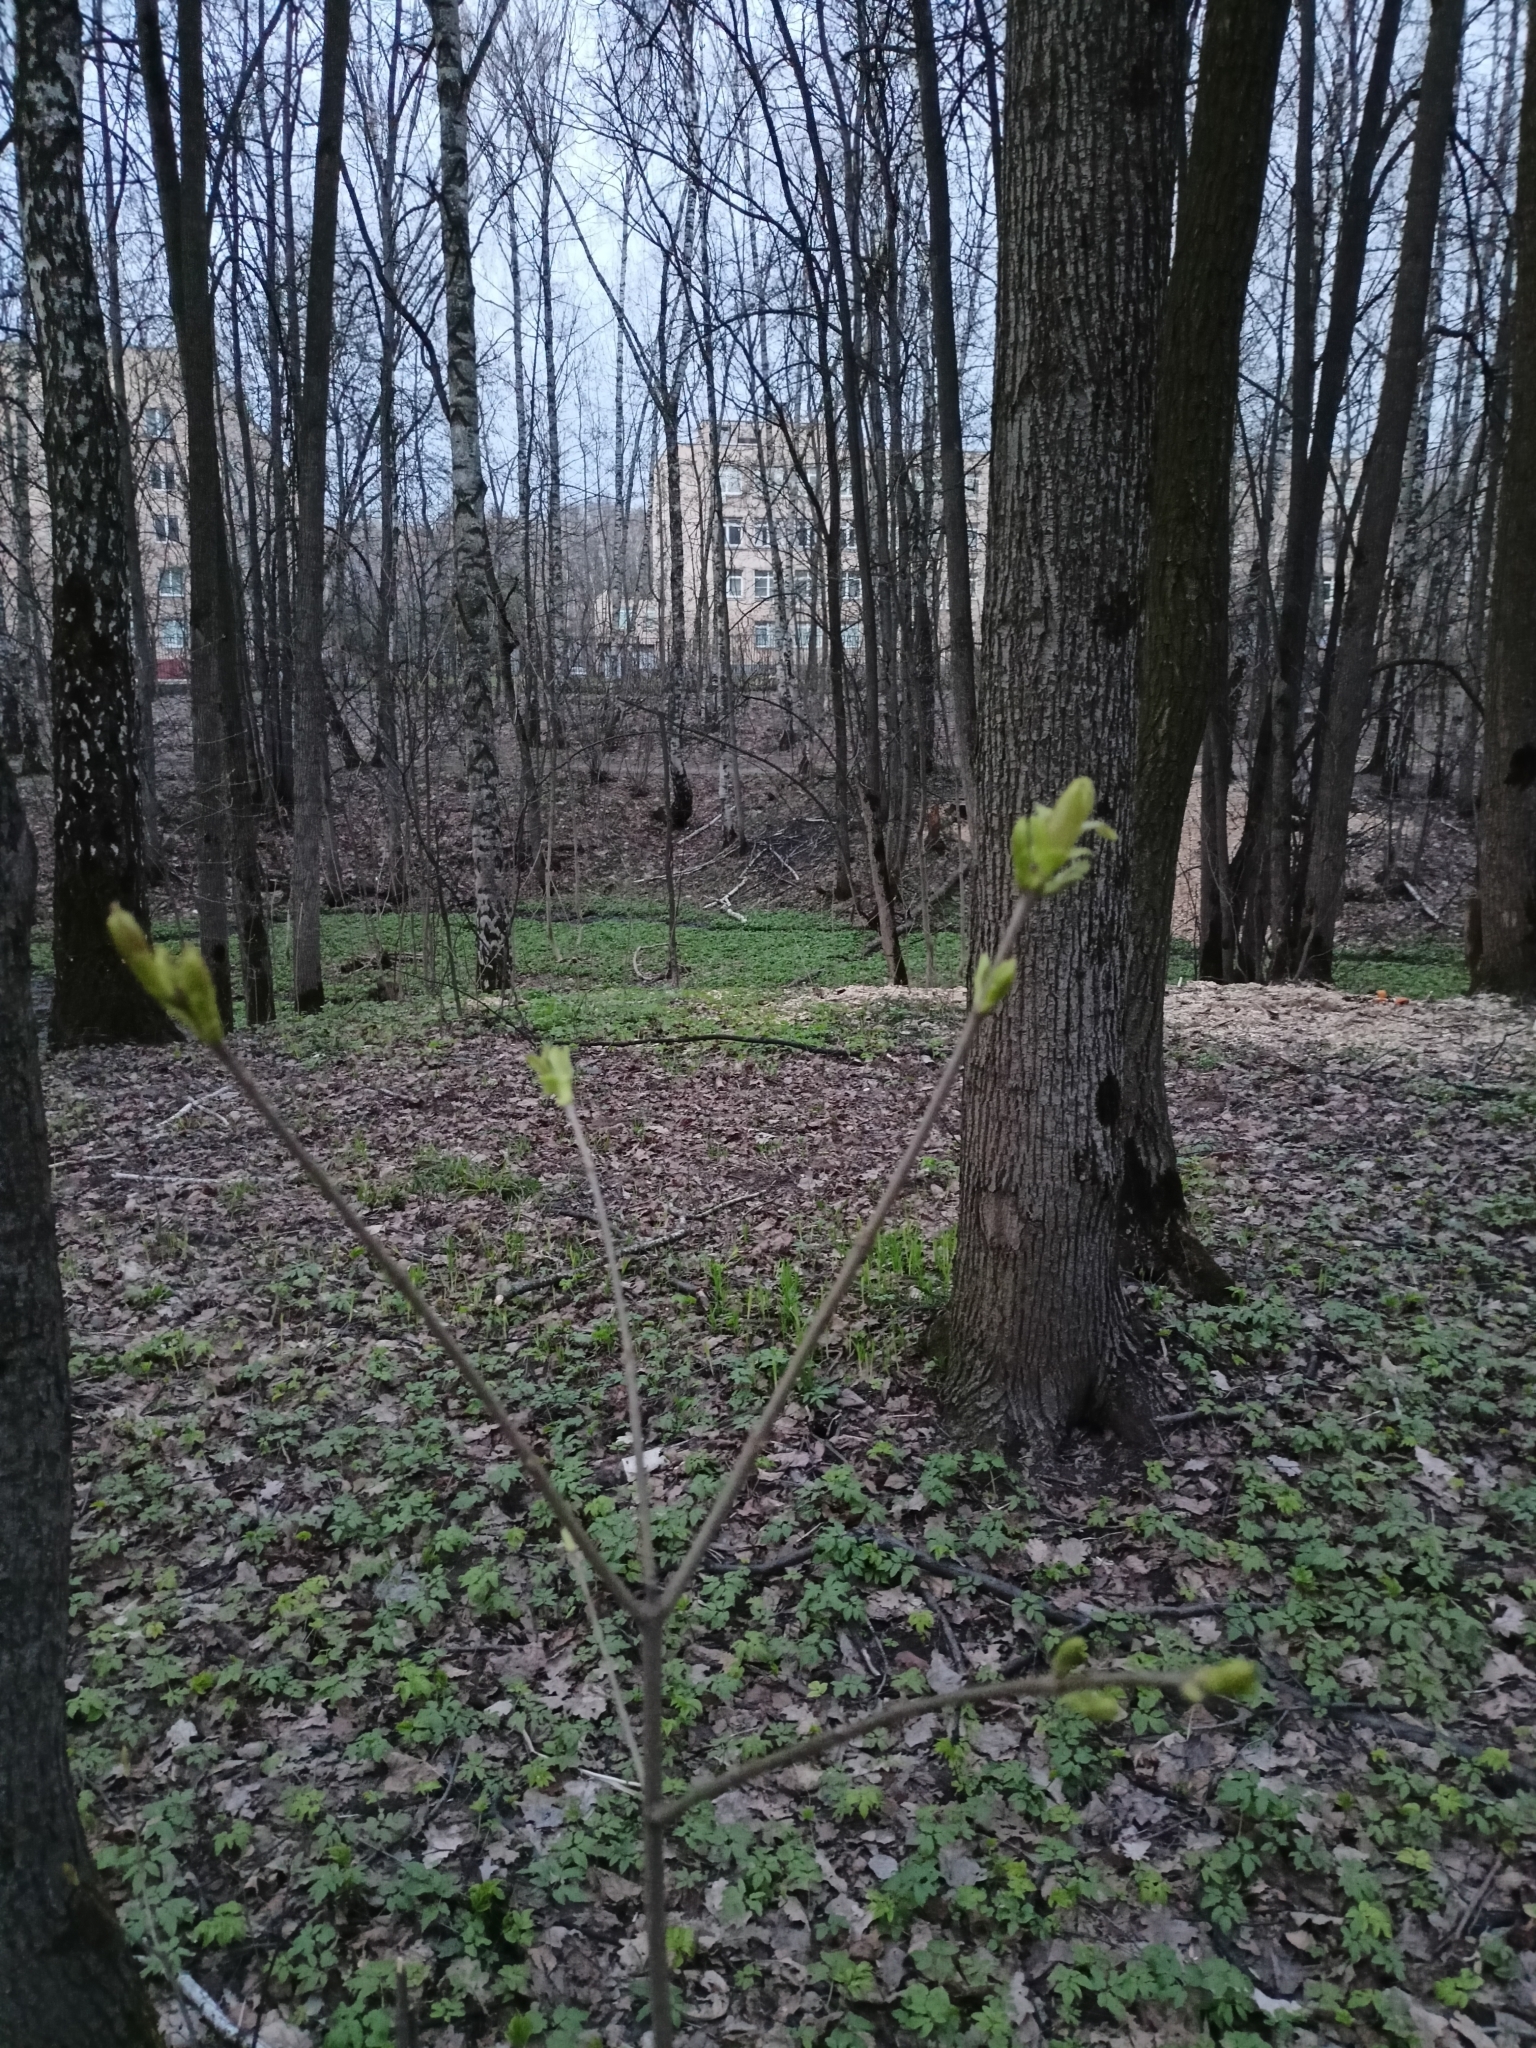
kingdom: Plantae
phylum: Tracheophyta
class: Magnoliopsida
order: Sapindales
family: Sapindaceae
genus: Acer
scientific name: Acer platanoides
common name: Norway maple
